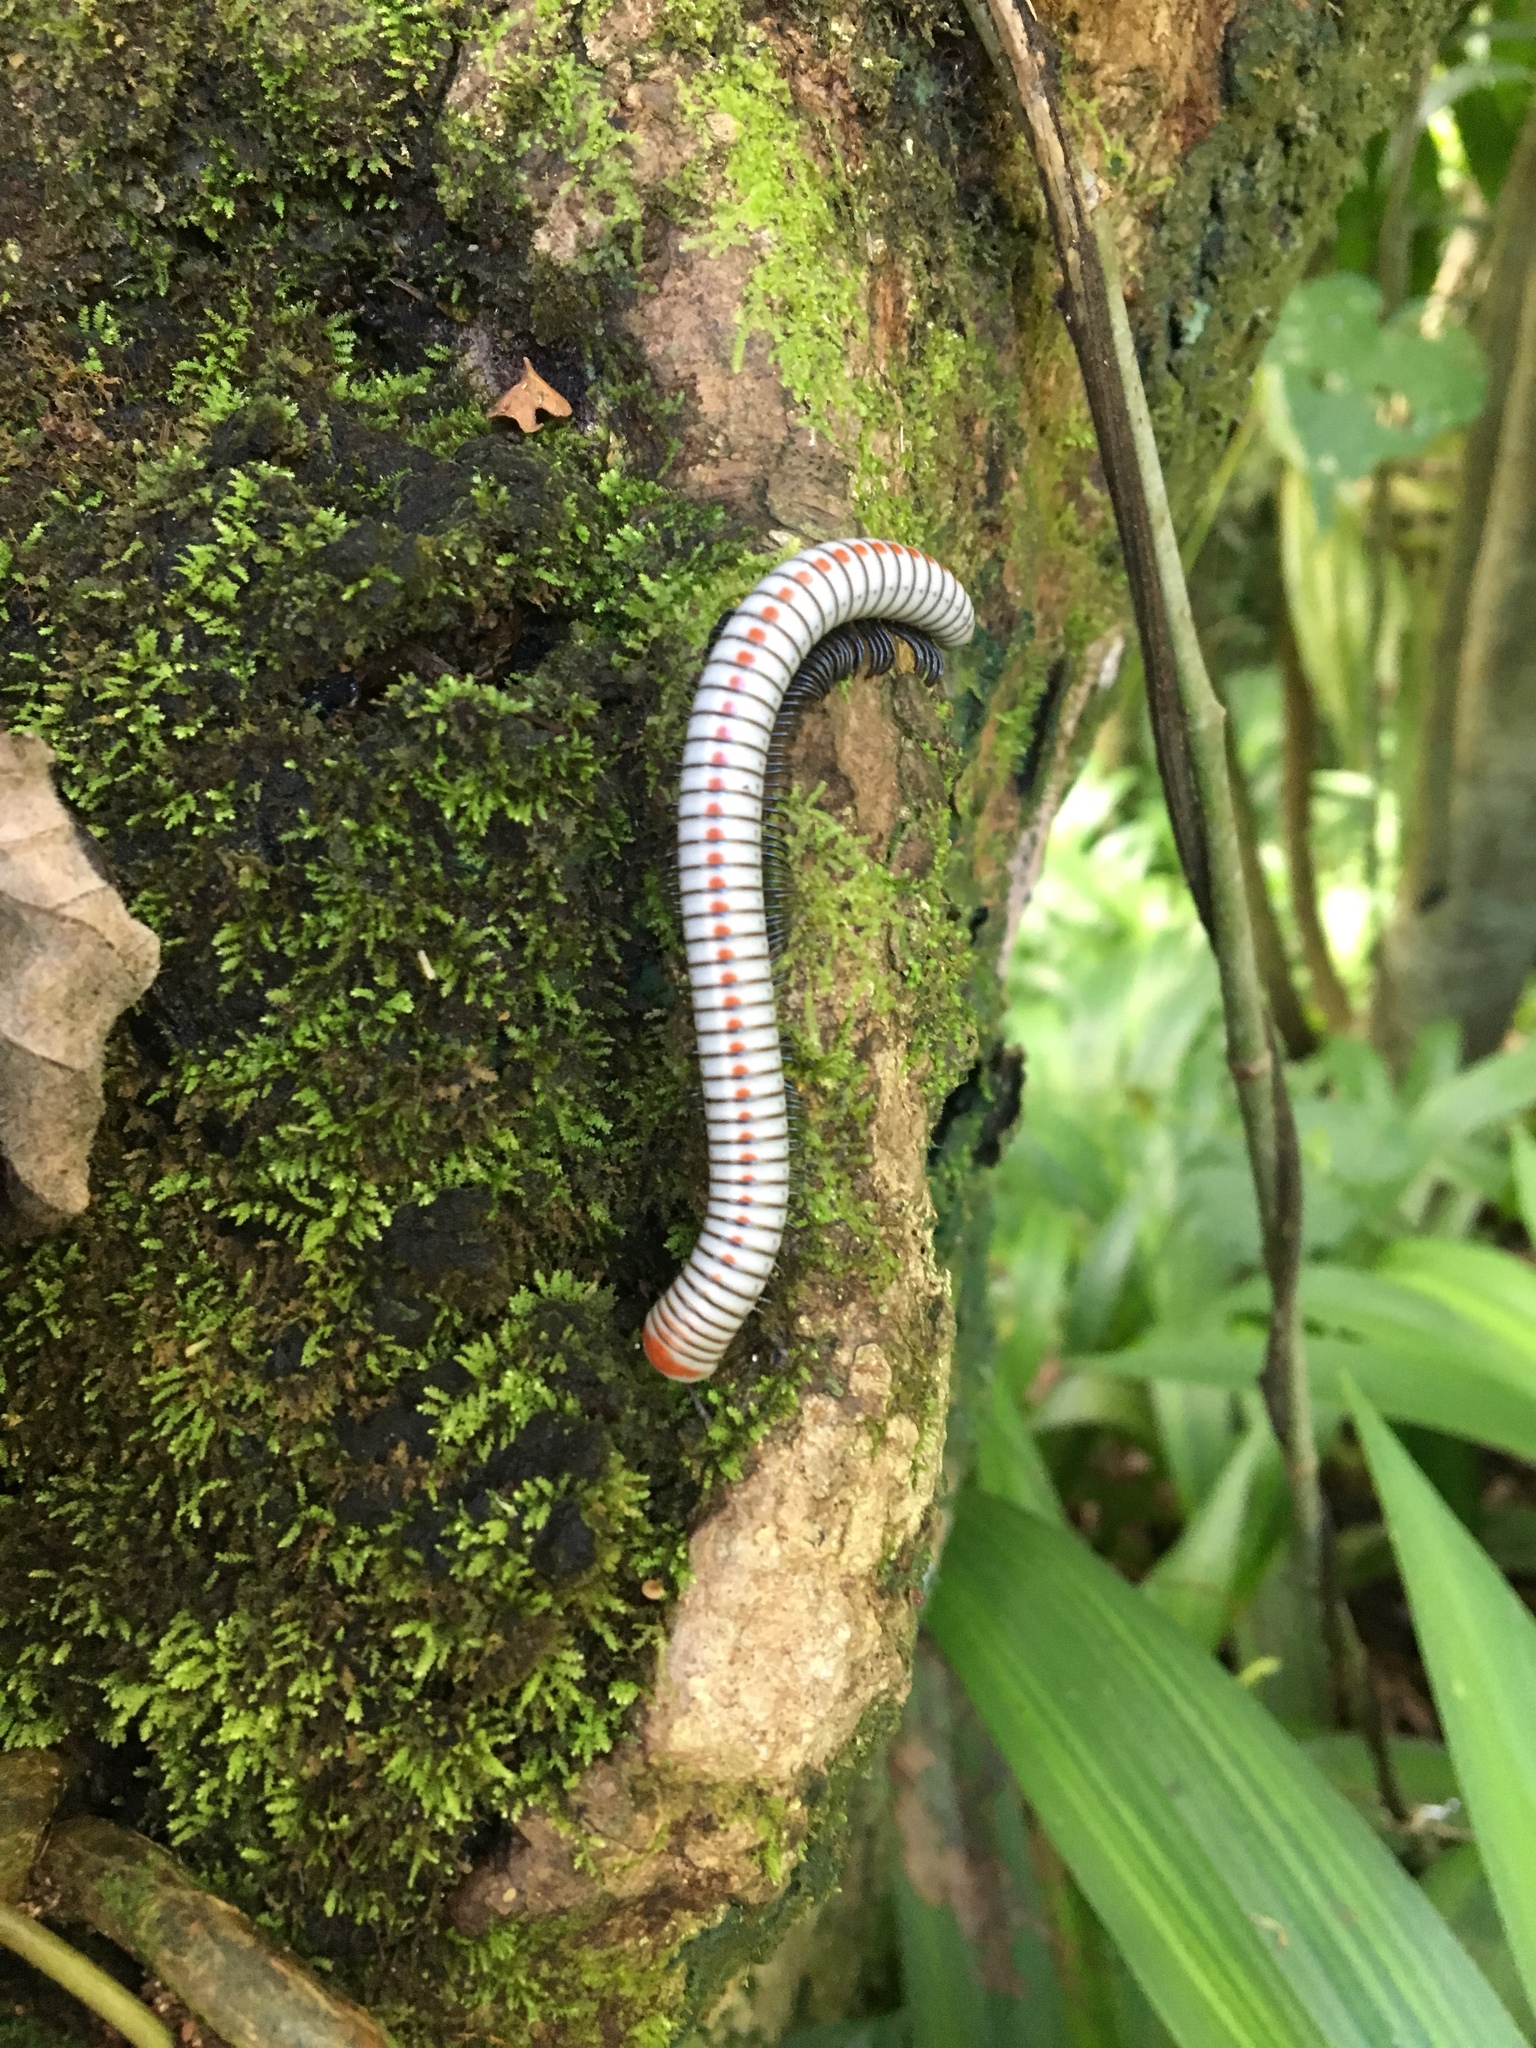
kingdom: Animalia
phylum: Arthropoda
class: Diplopoda
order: Spirobolida
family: Rhinocricidae
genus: Anadenobolus
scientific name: Anadenobolus arboreus
